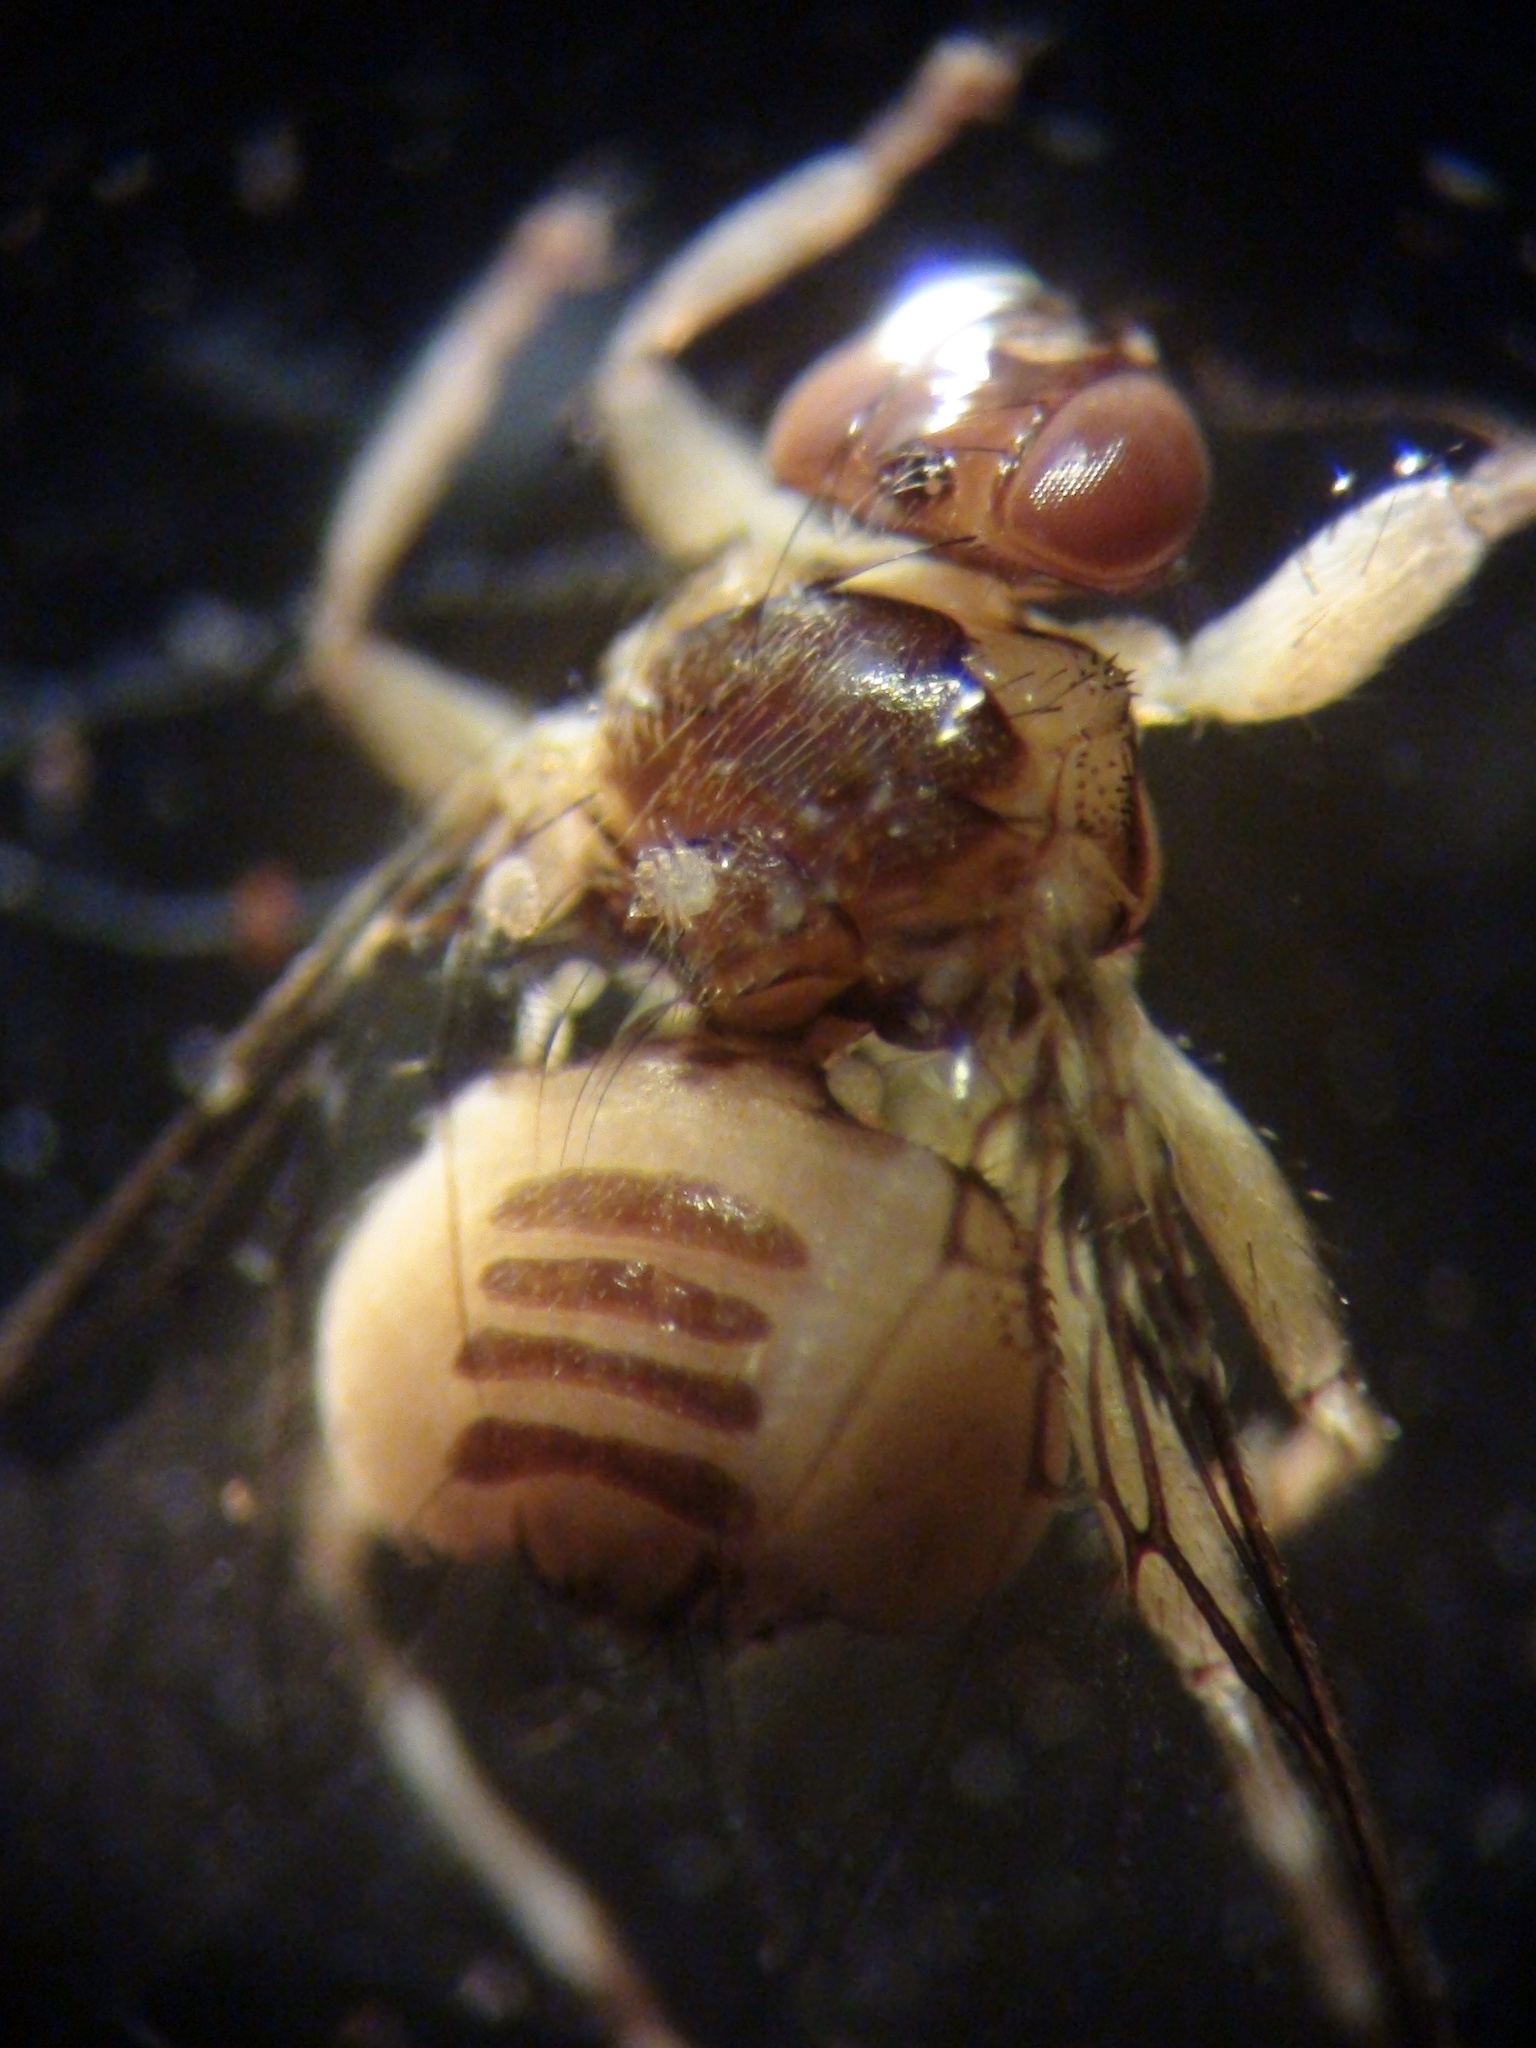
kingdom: Animalia
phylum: Arthropoda
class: Insecta
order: Diptera
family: Hippoboscidae
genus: Ornithoica
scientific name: Ornithoica vicina
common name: Ked
